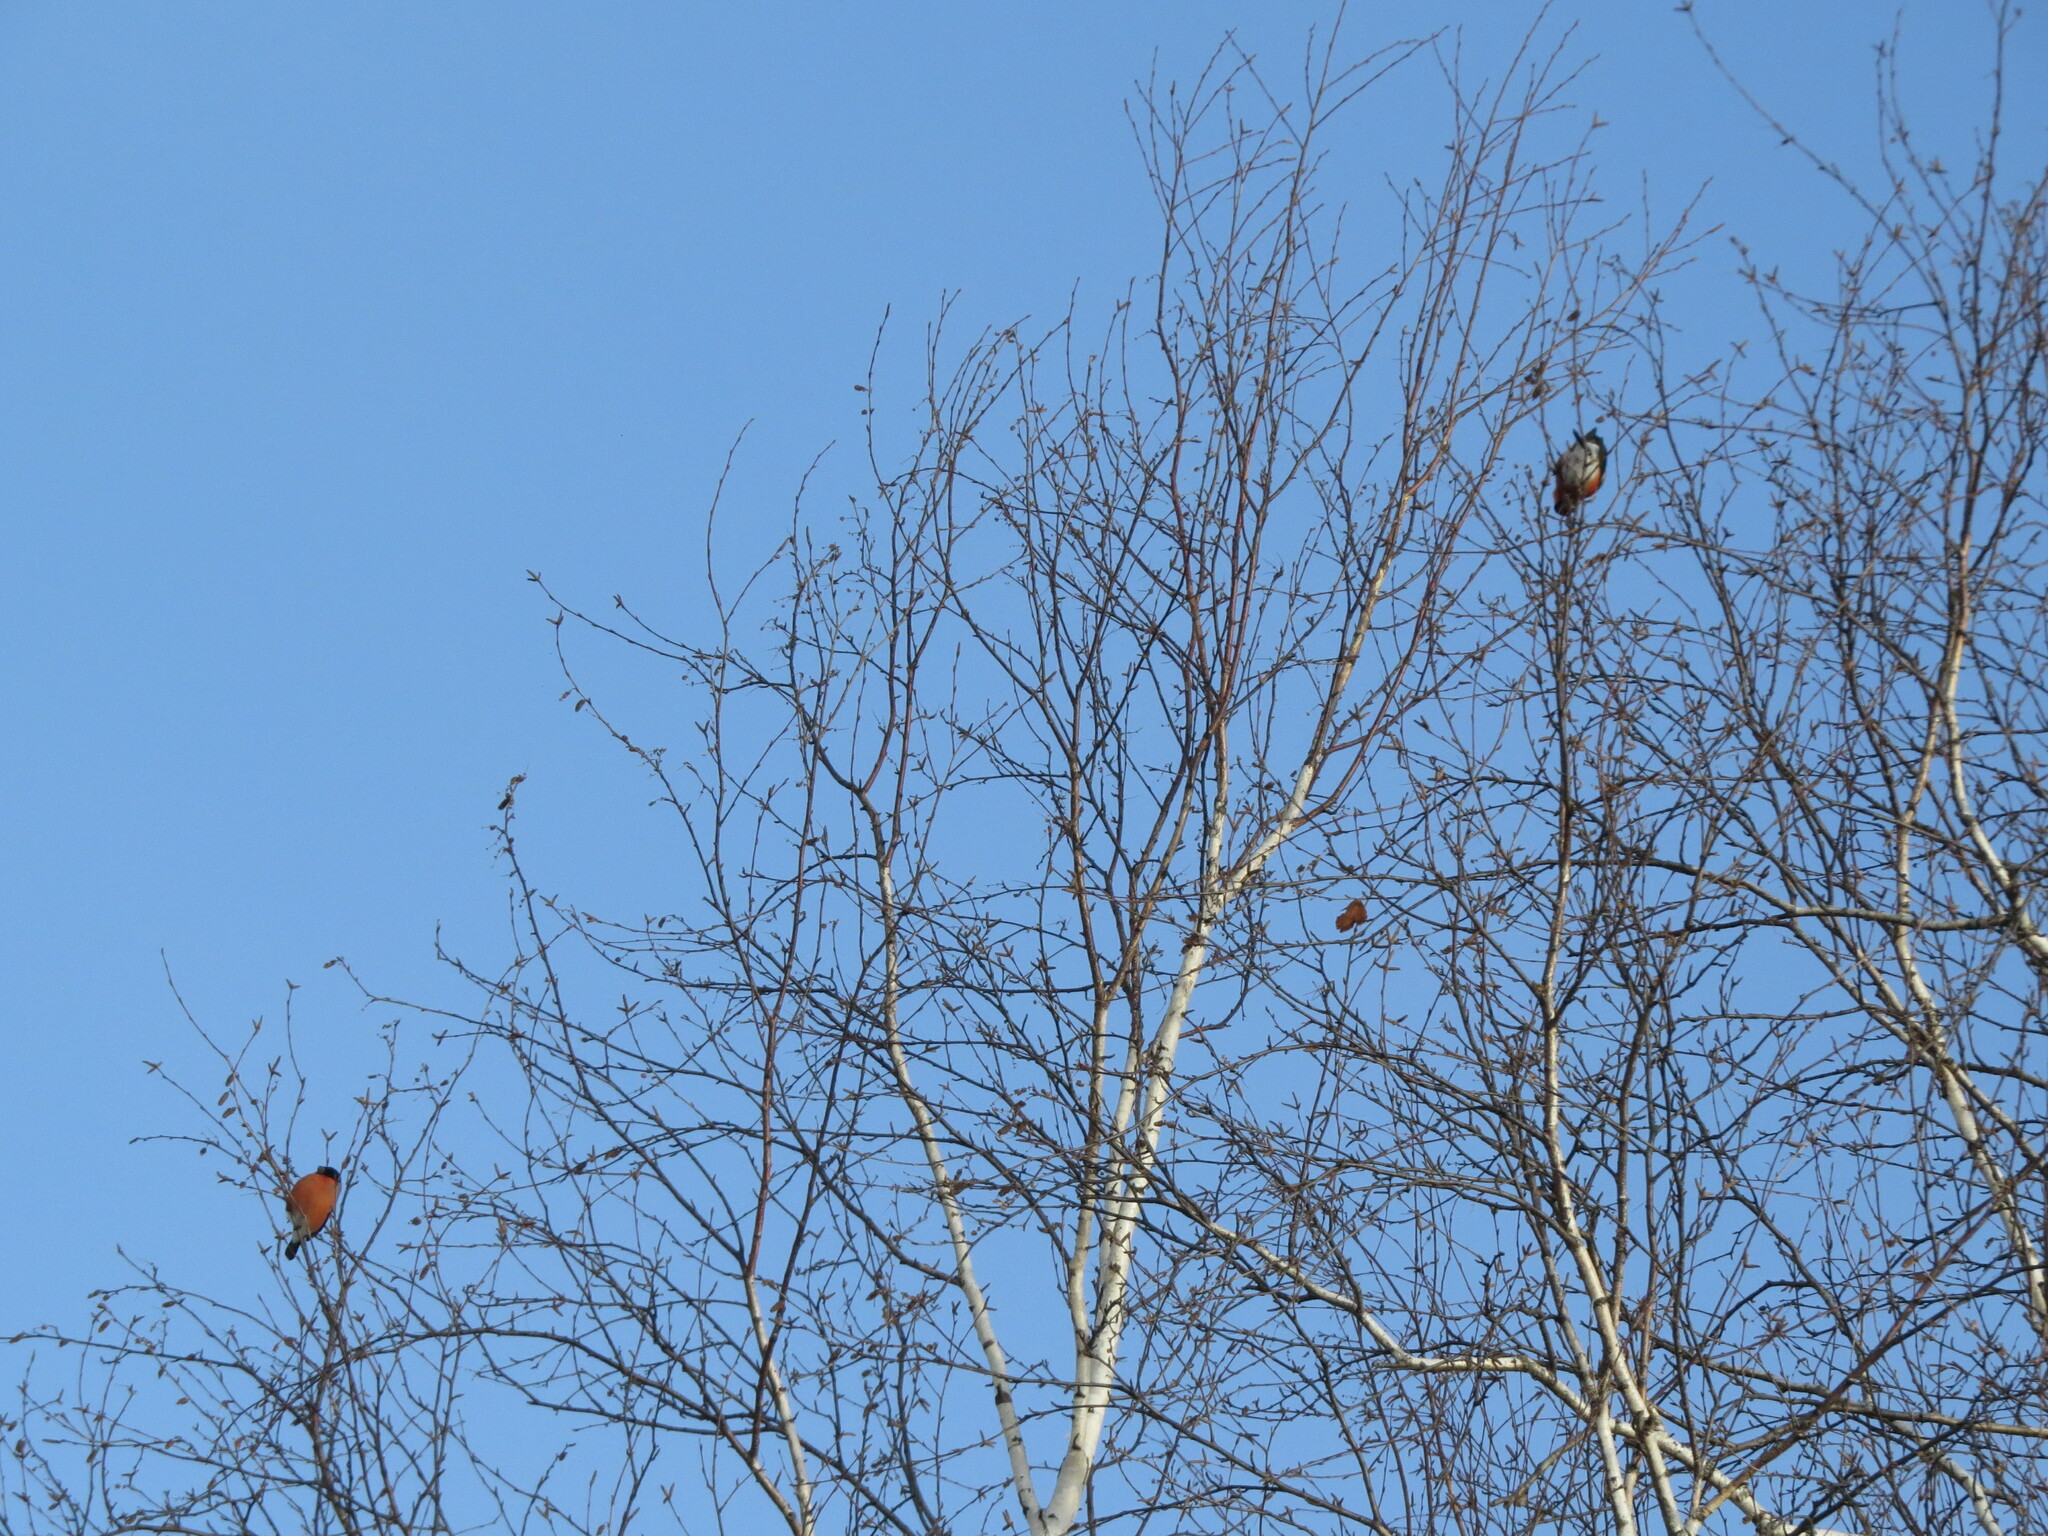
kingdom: Animalia
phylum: Chordata
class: Aves
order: Passeriformes
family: Fringillidae
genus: Pyrrhula
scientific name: Pyrrhula pyrrhula
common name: Eurasian bullfinch
